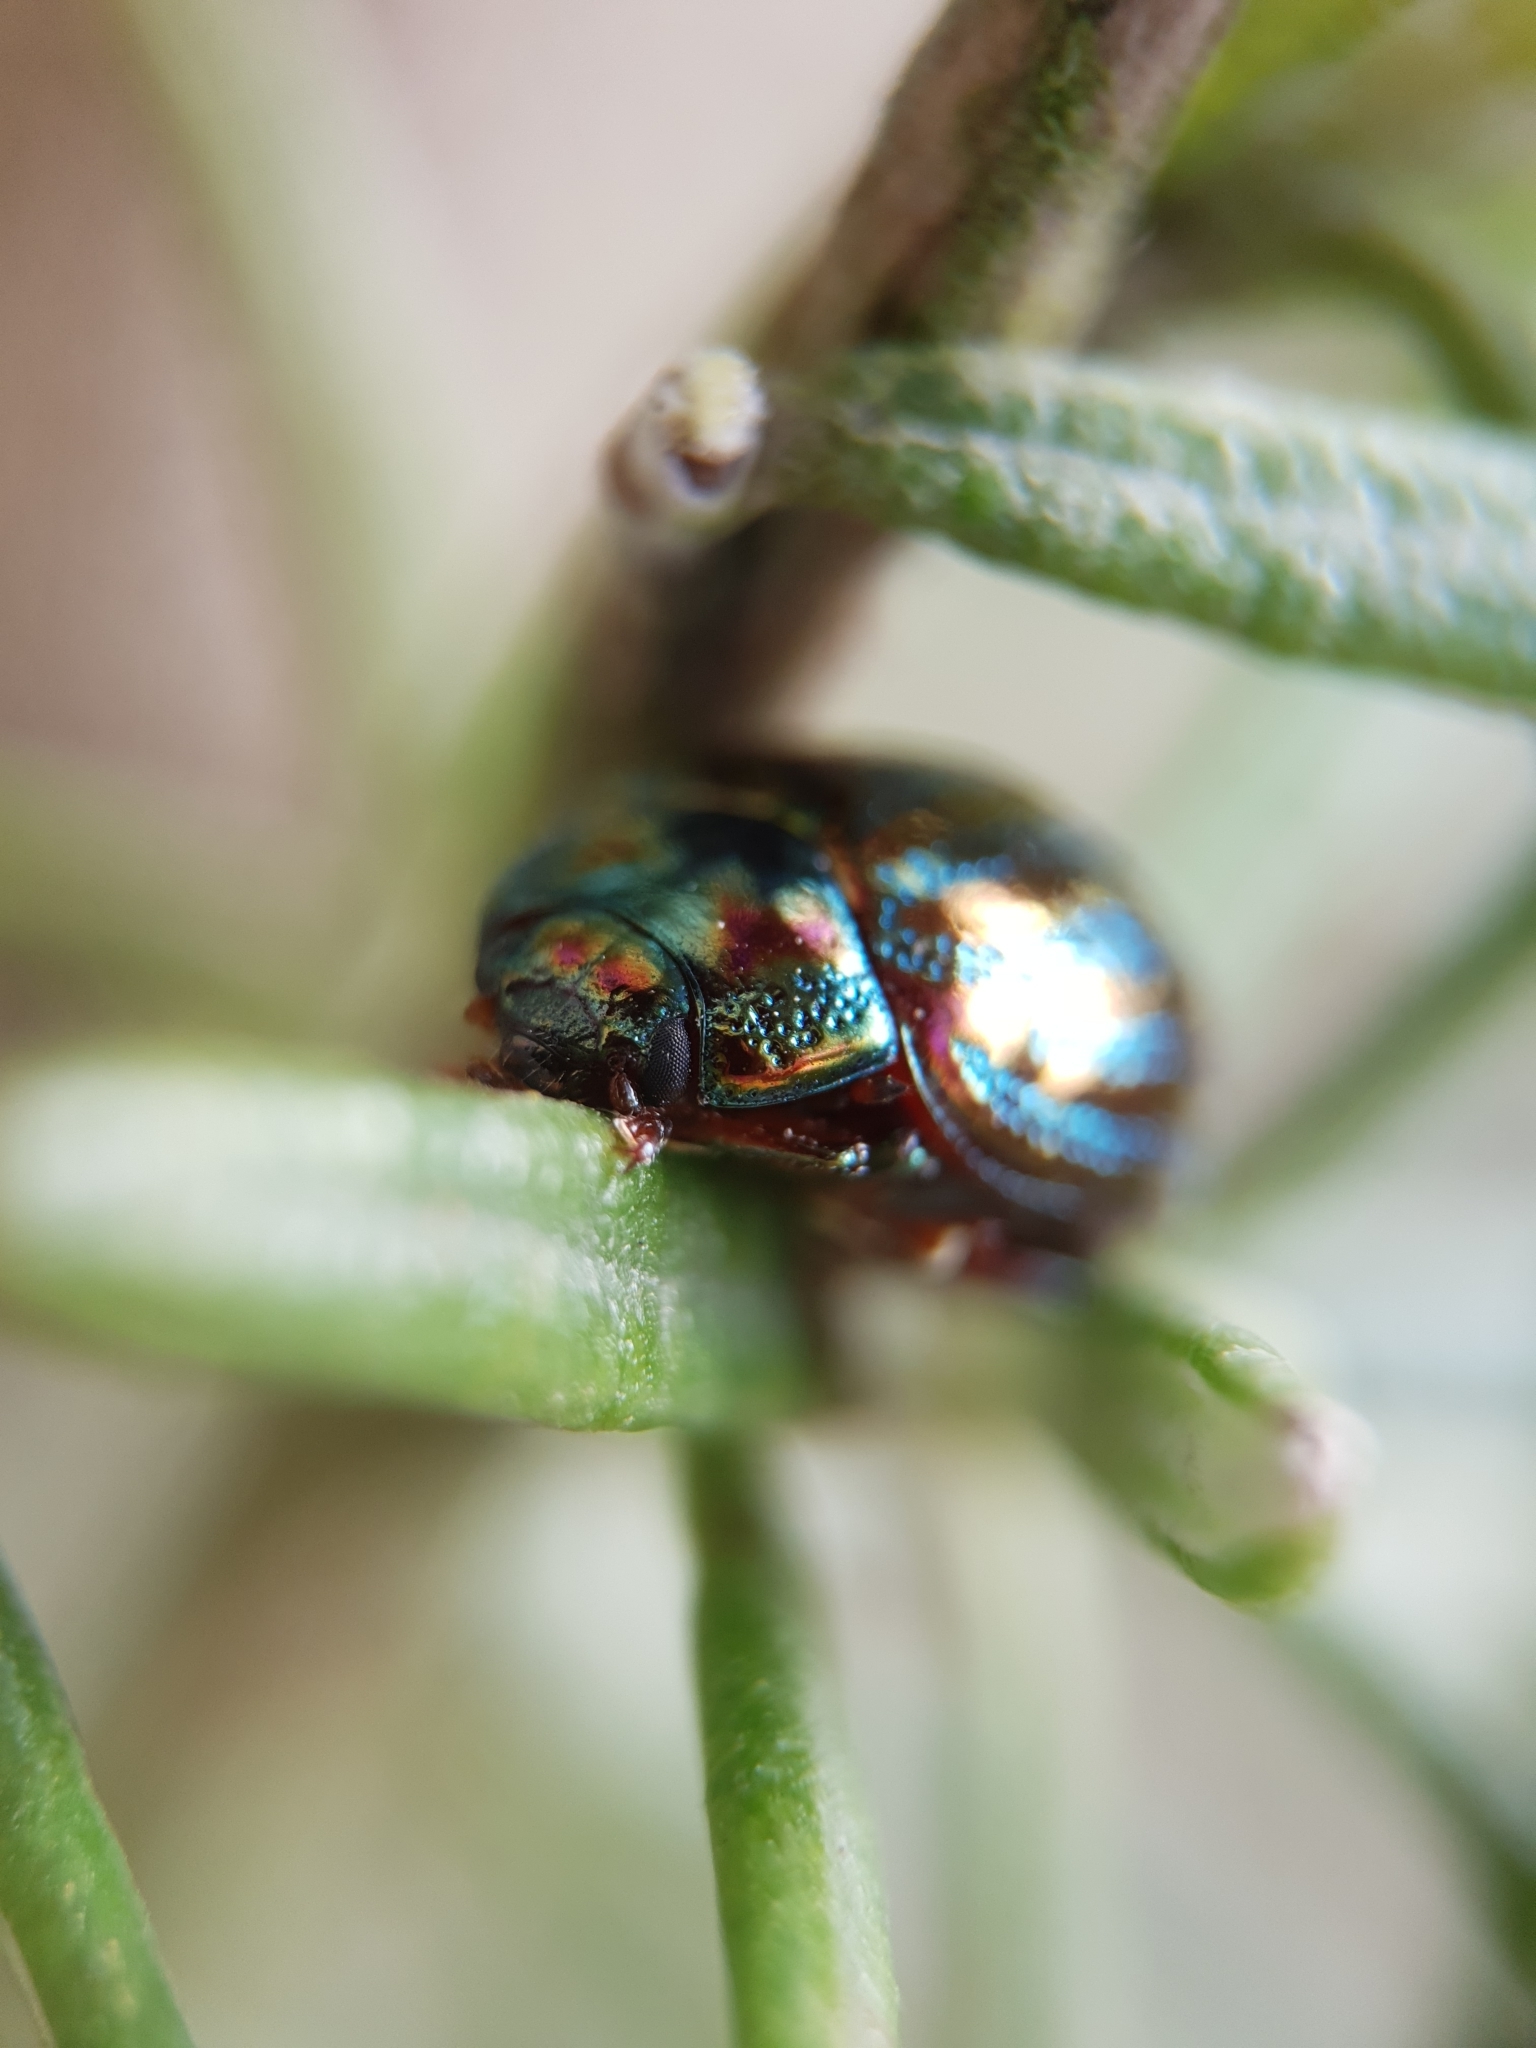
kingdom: Animalia
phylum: Arthropoda
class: Insecta
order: Coleoptera
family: Chrysomelidae
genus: Chrysolina
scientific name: Chrysolina americana
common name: Rosemary beetle
